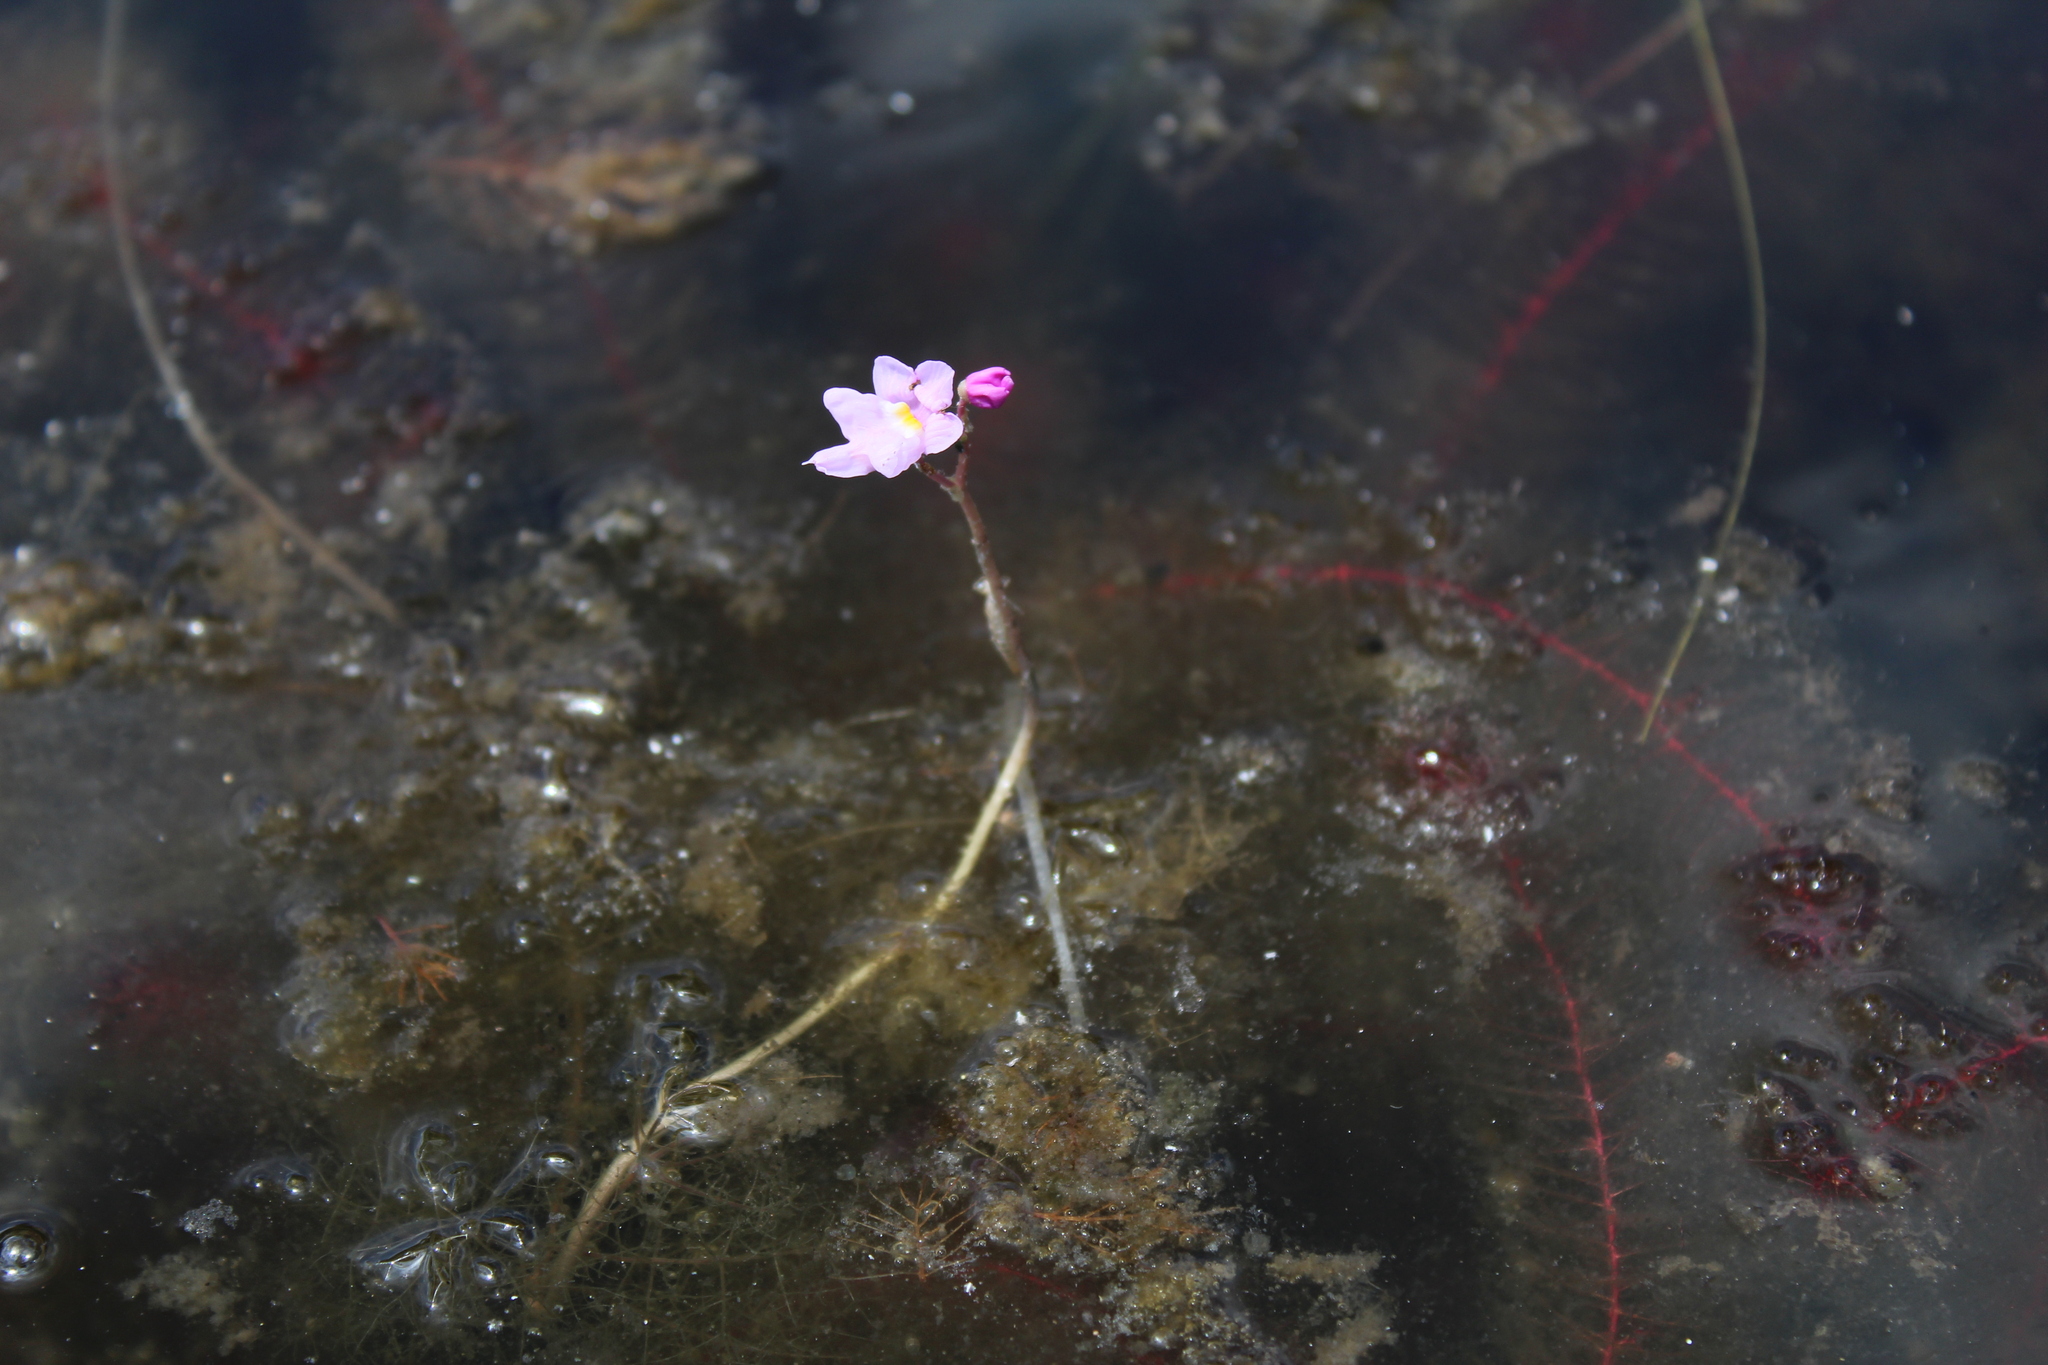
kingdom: Plantae
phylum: Tracheophyta
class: Magnoliopsida
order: Lamiales
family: Lentibulariaceae
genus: Utricularia
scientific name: Utricularia purpurea
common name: Eastern purple bladderwort
